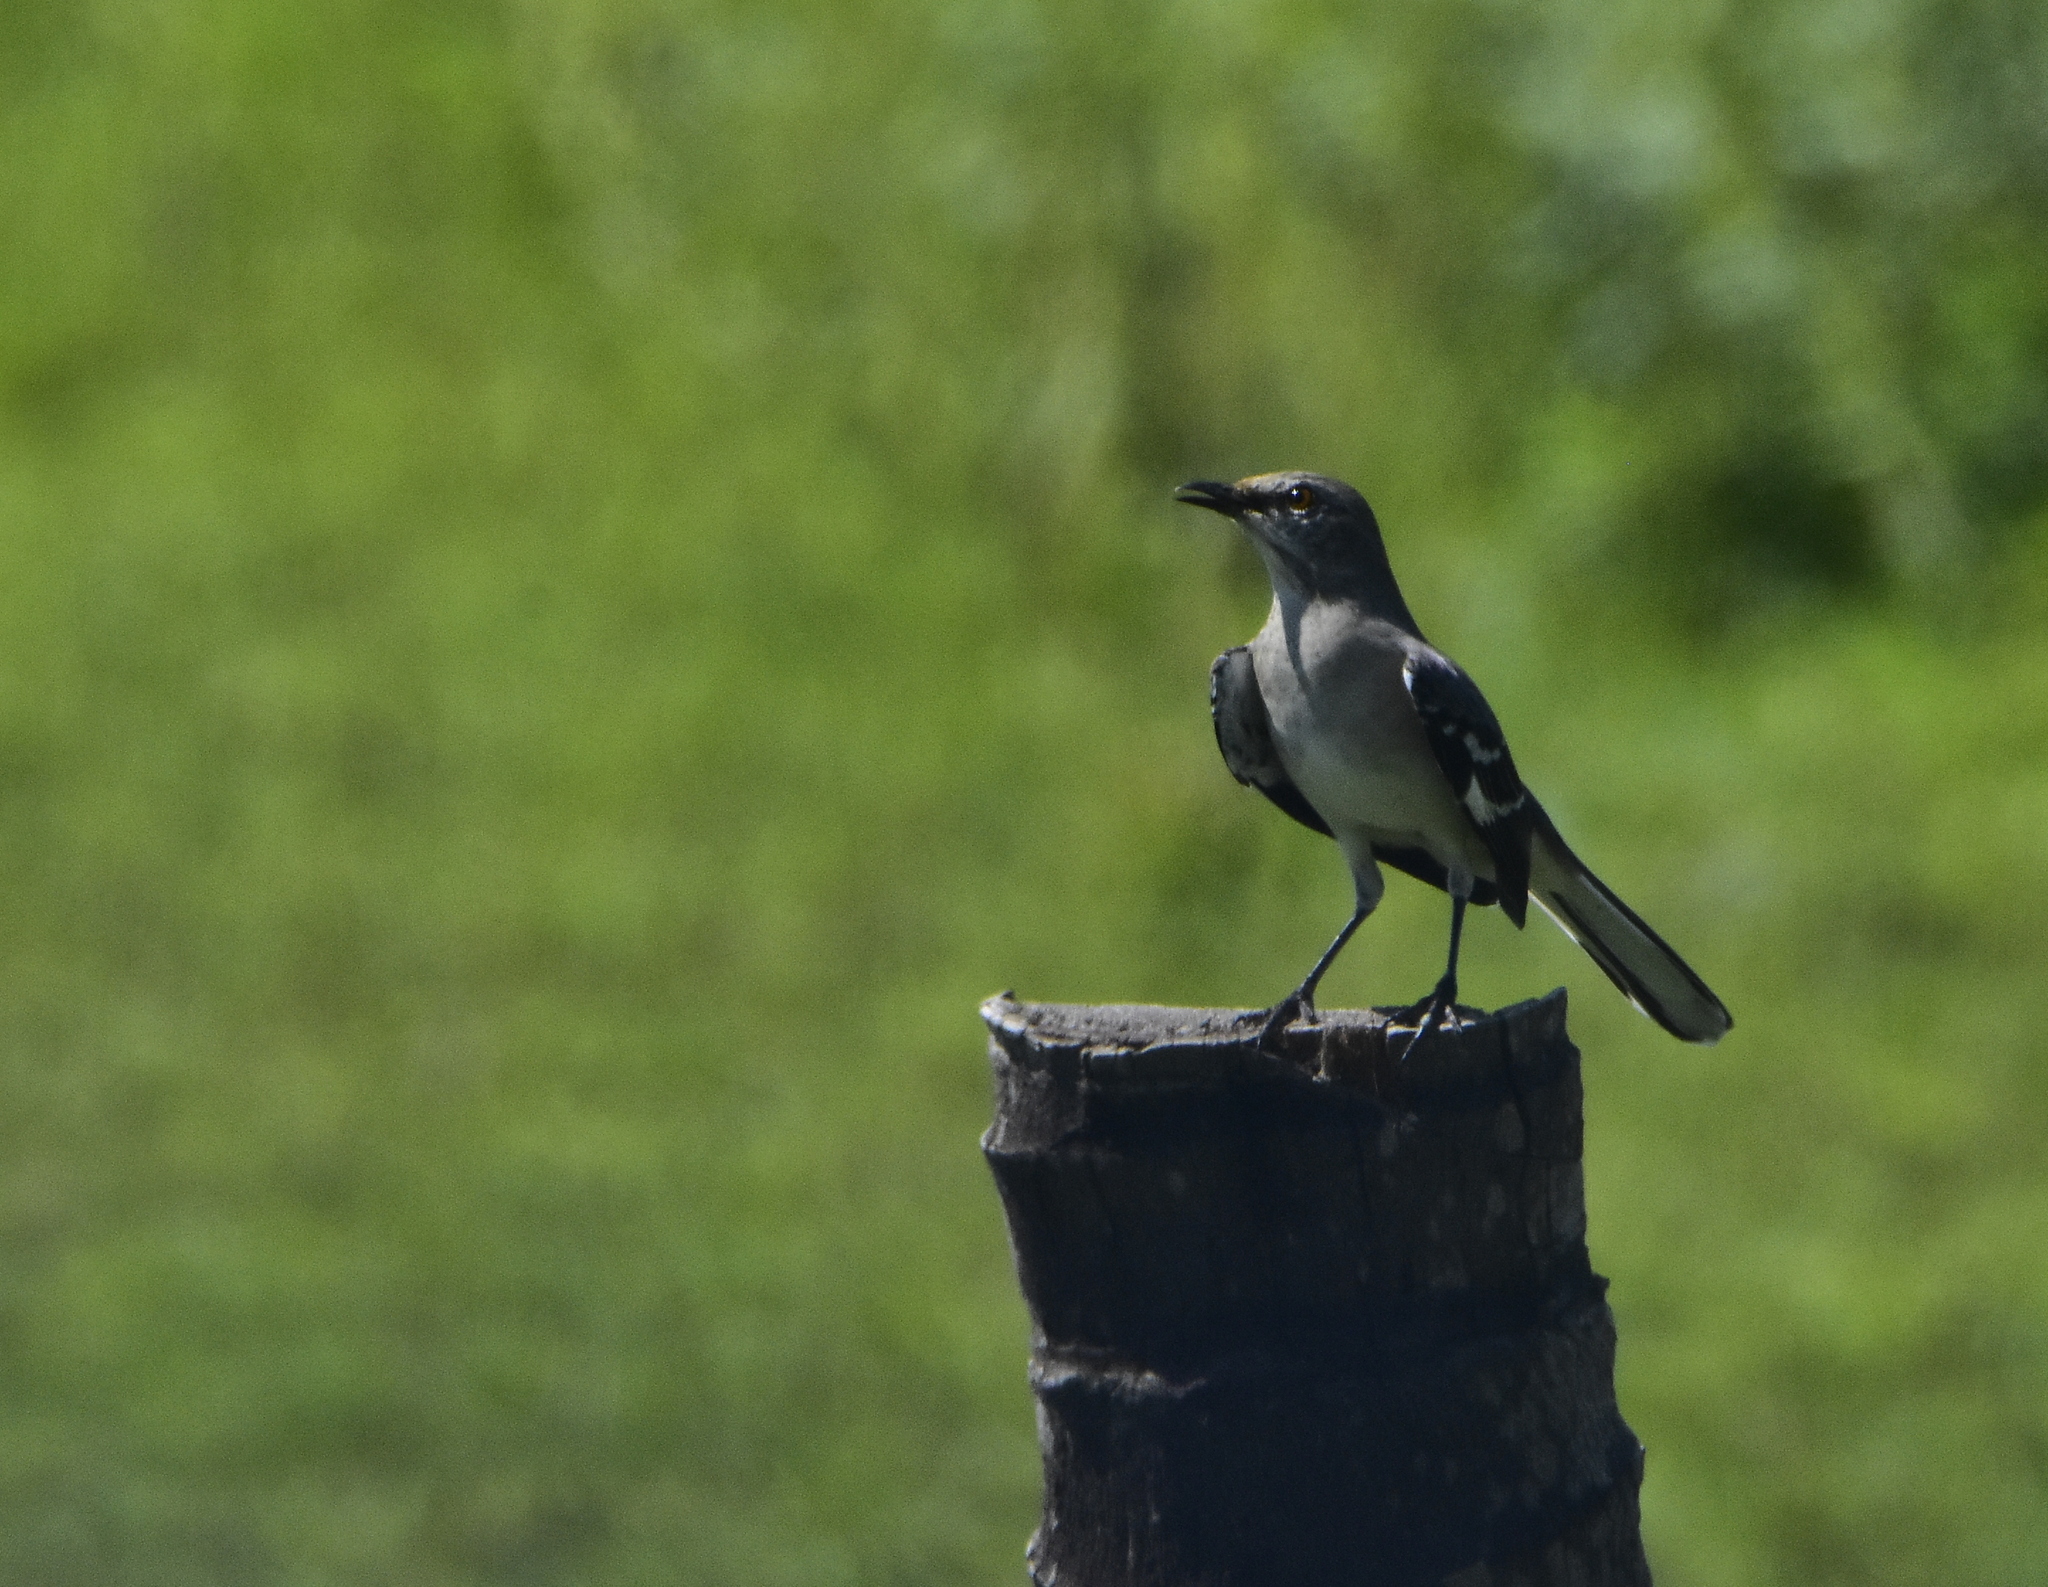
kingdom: Animalia
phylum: Chordata
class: Aves
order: Passeriformes
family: Mimidae
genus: Mimus
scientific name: Mimus polyglottos
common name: Northern mockingbird
